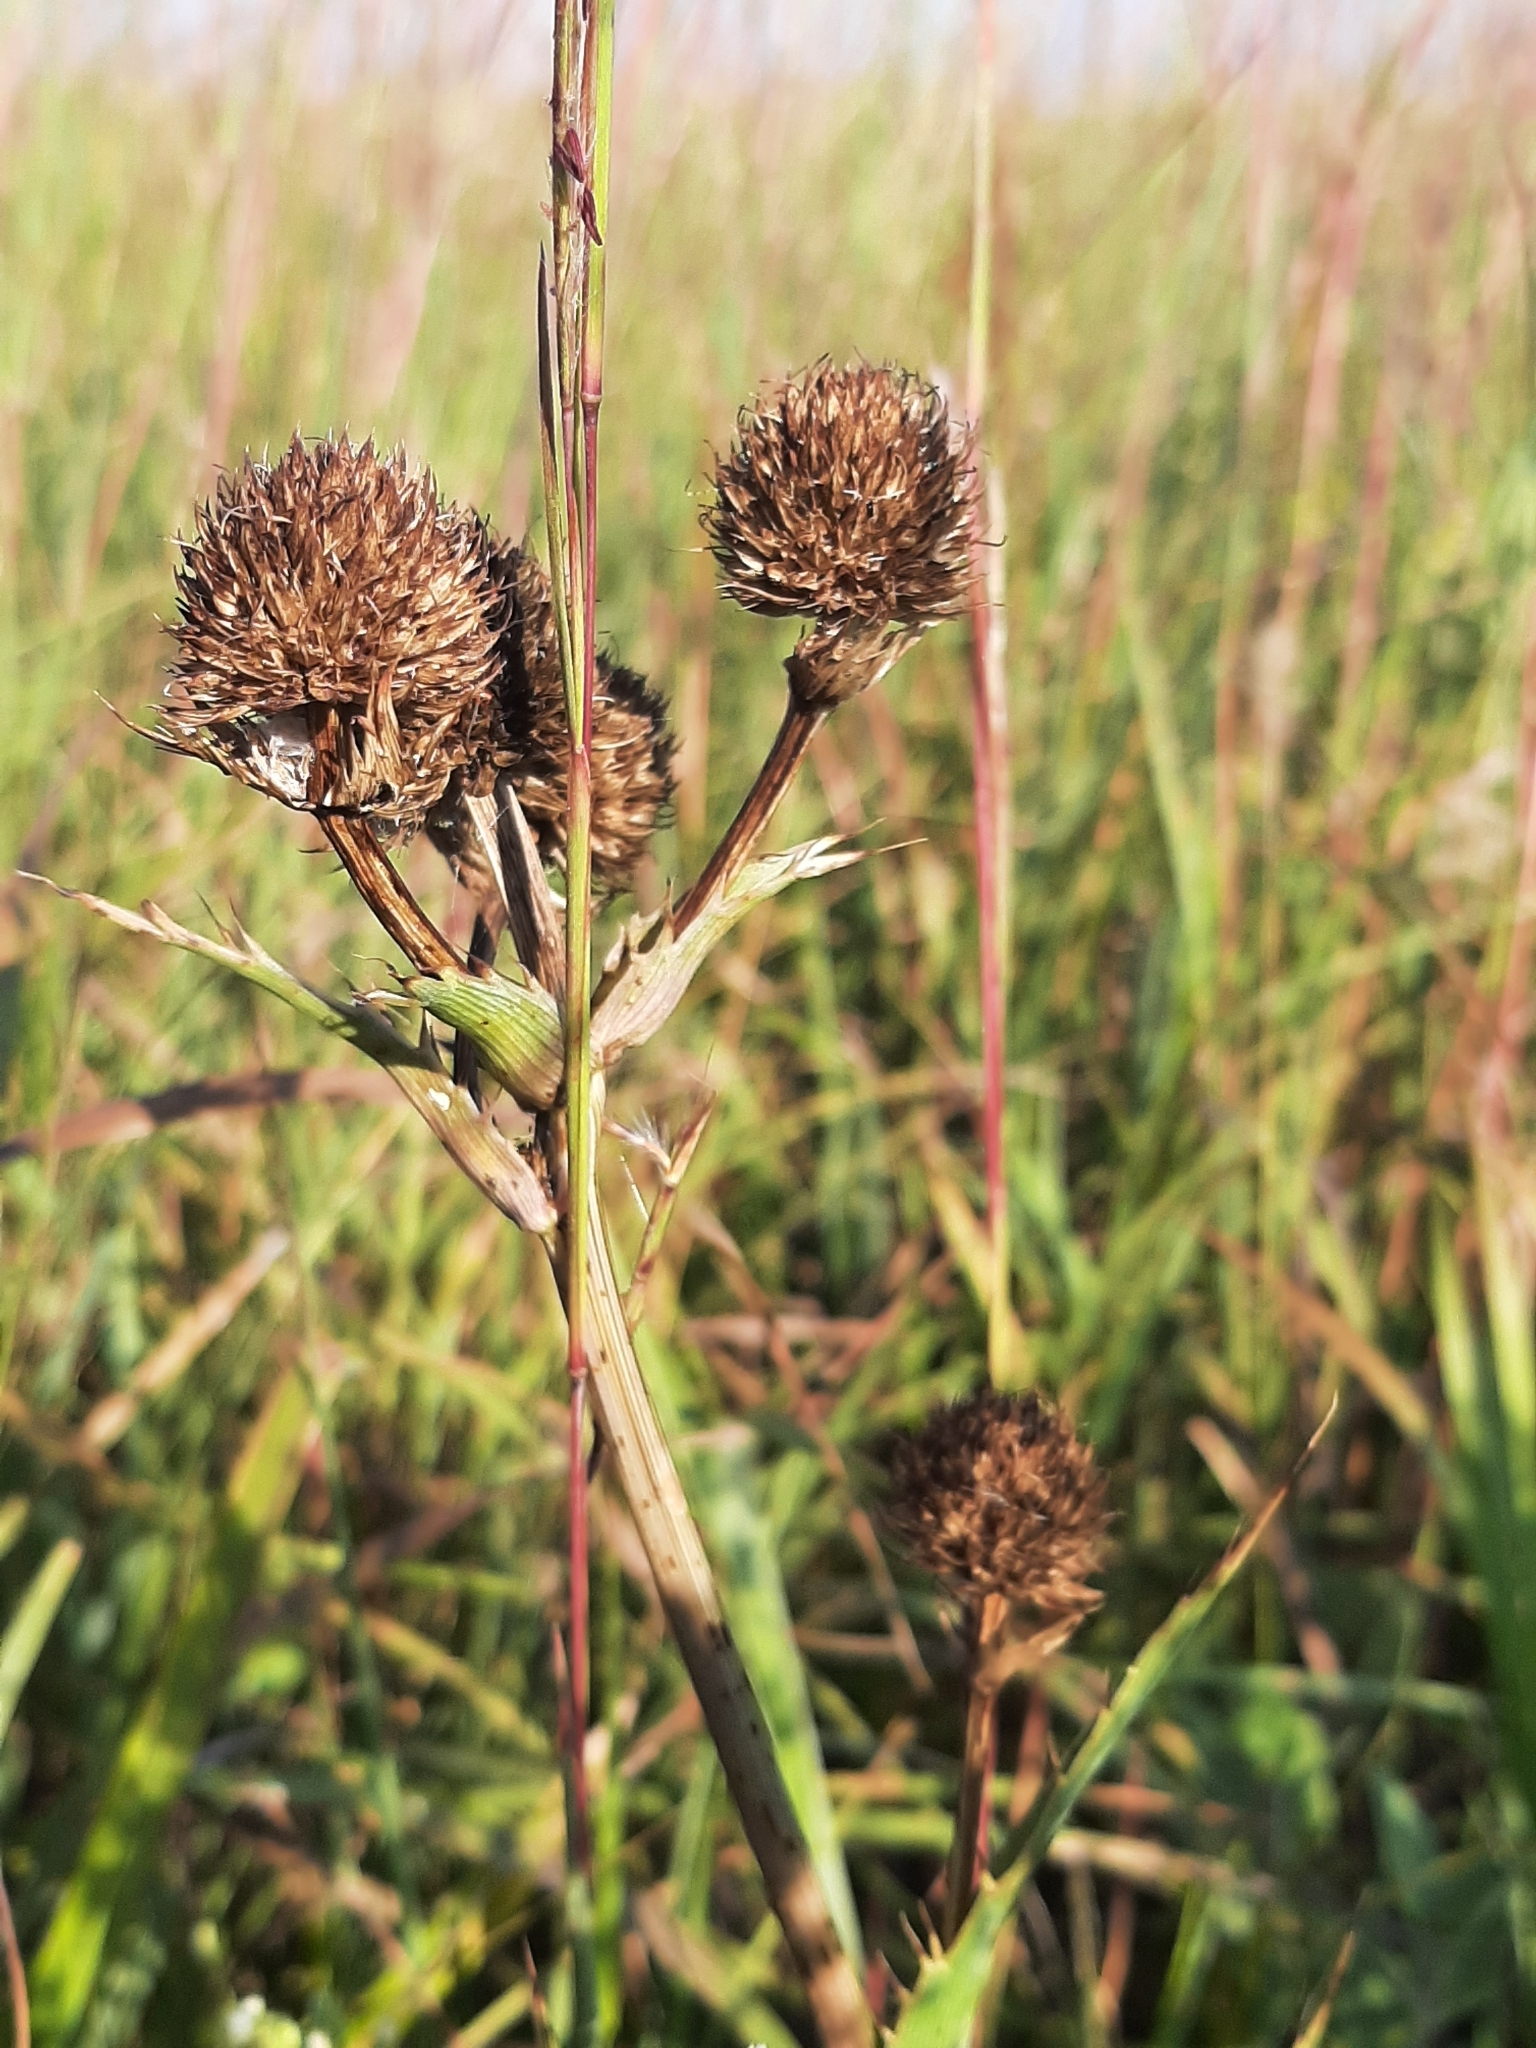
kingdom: Plantae
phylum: Tracheophyta
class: Magnoliopsida
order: Apiales
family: Apiaceae
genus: Eryngium
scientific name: Eryngium yuccifolium
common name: Button eryngo
